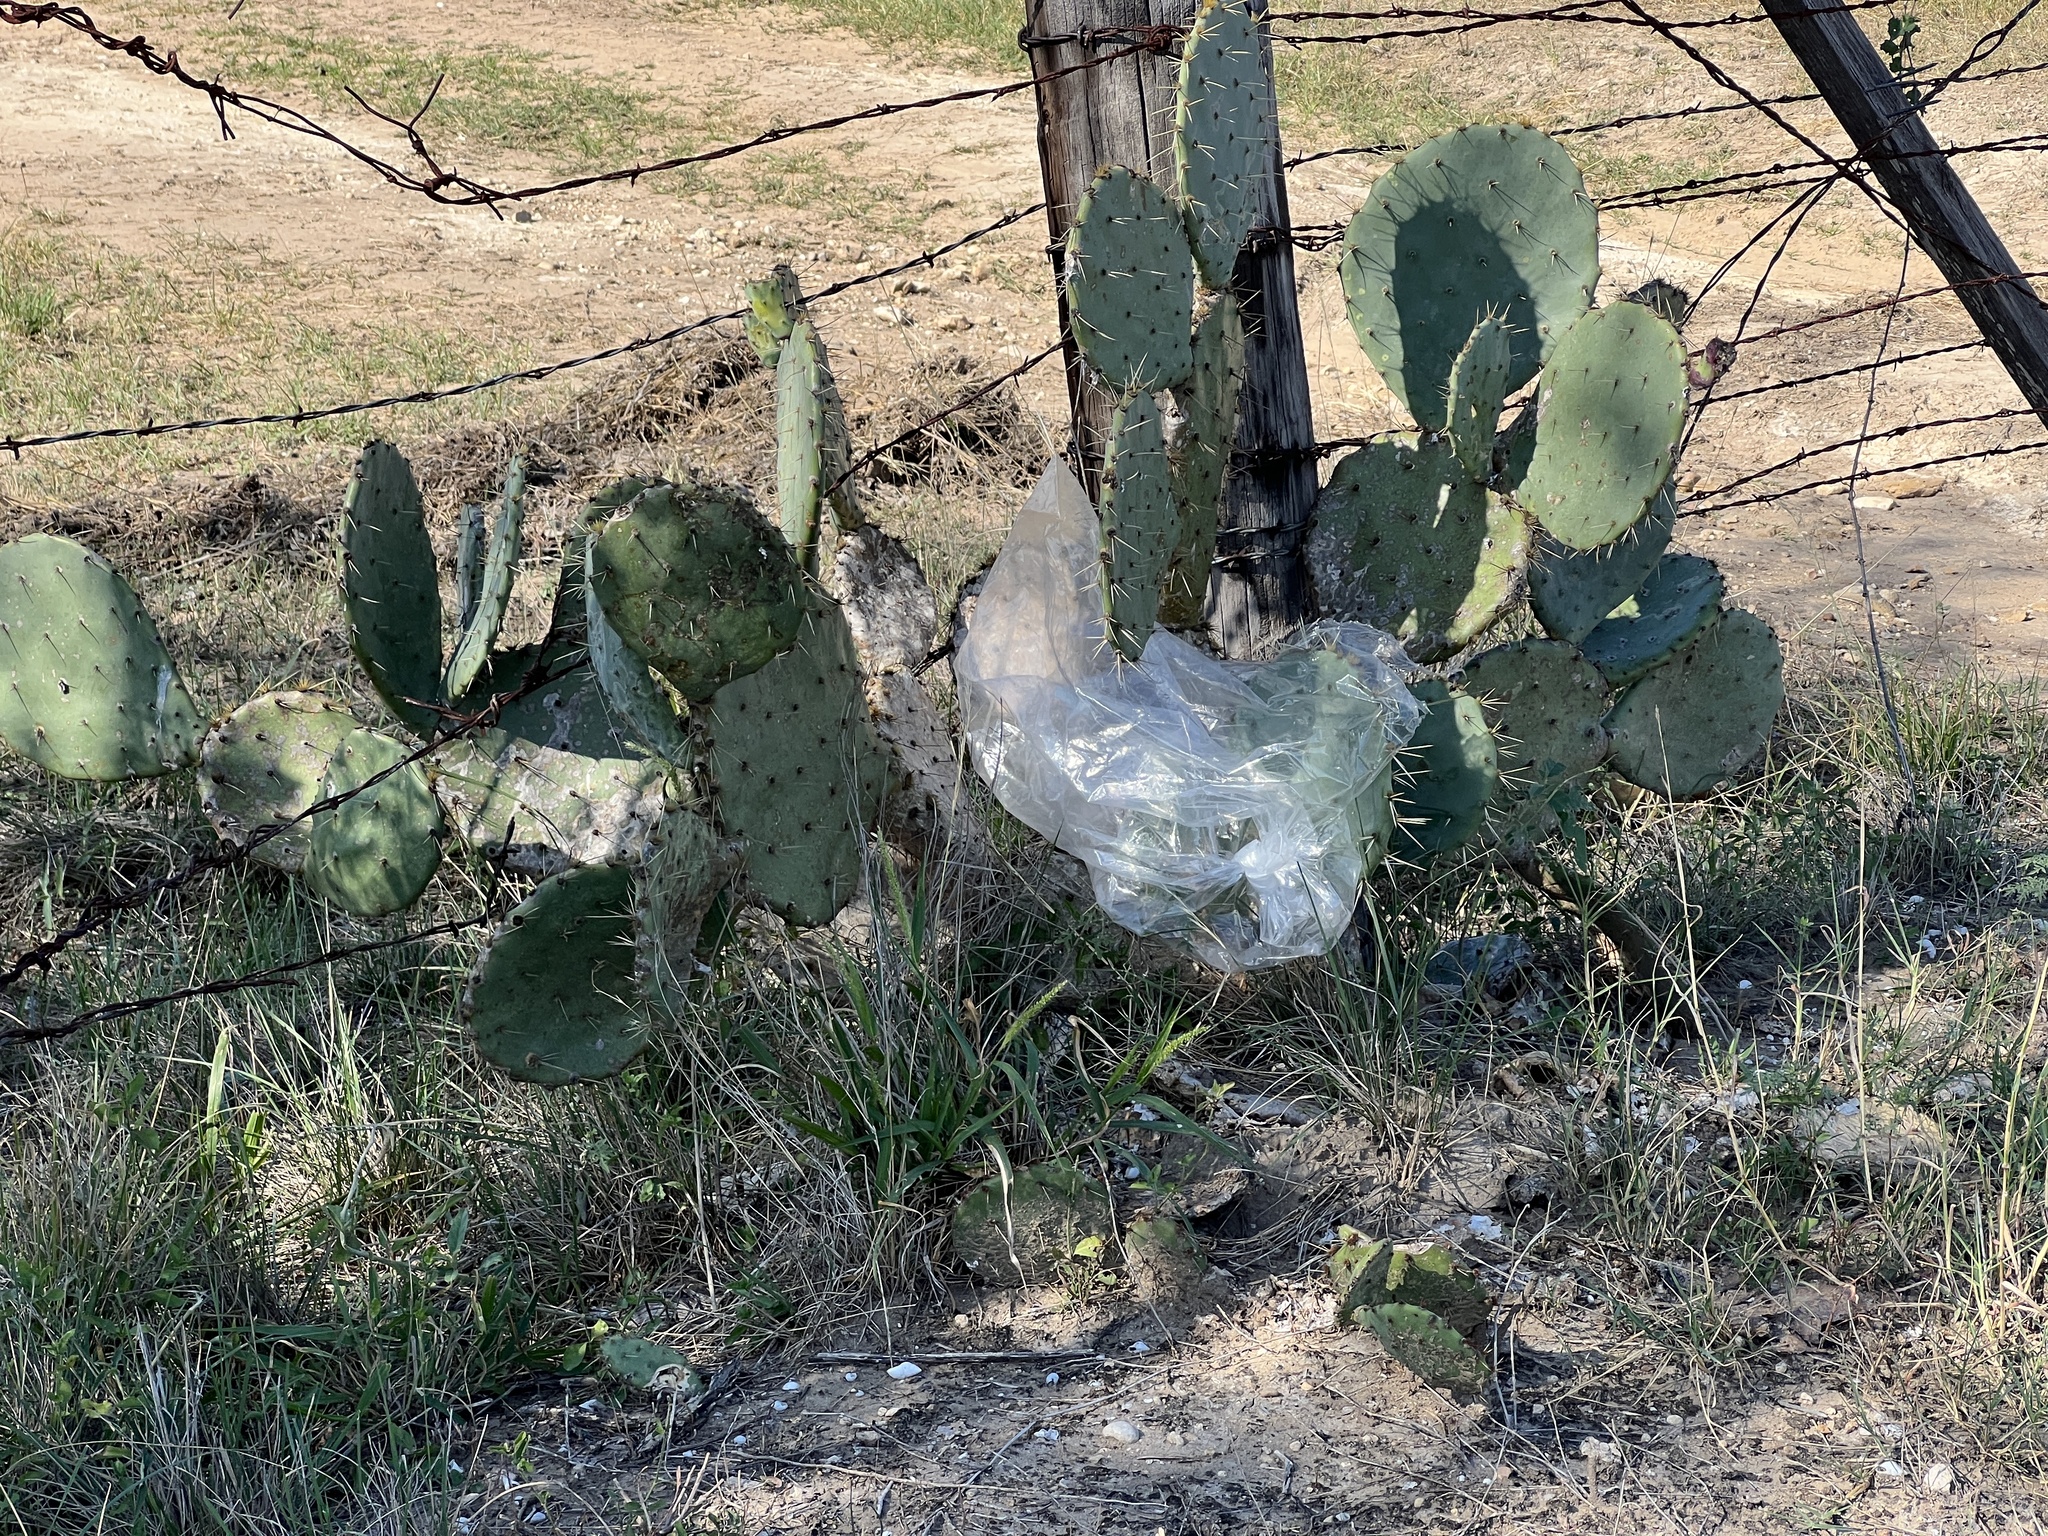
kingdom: Plantae
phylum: Tracheophyta
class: Magnoliopsida
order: Caryophyllales
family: Cactaceae
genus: Opuntia
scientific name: Opuntia engelmannii
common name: Cactus-apple
